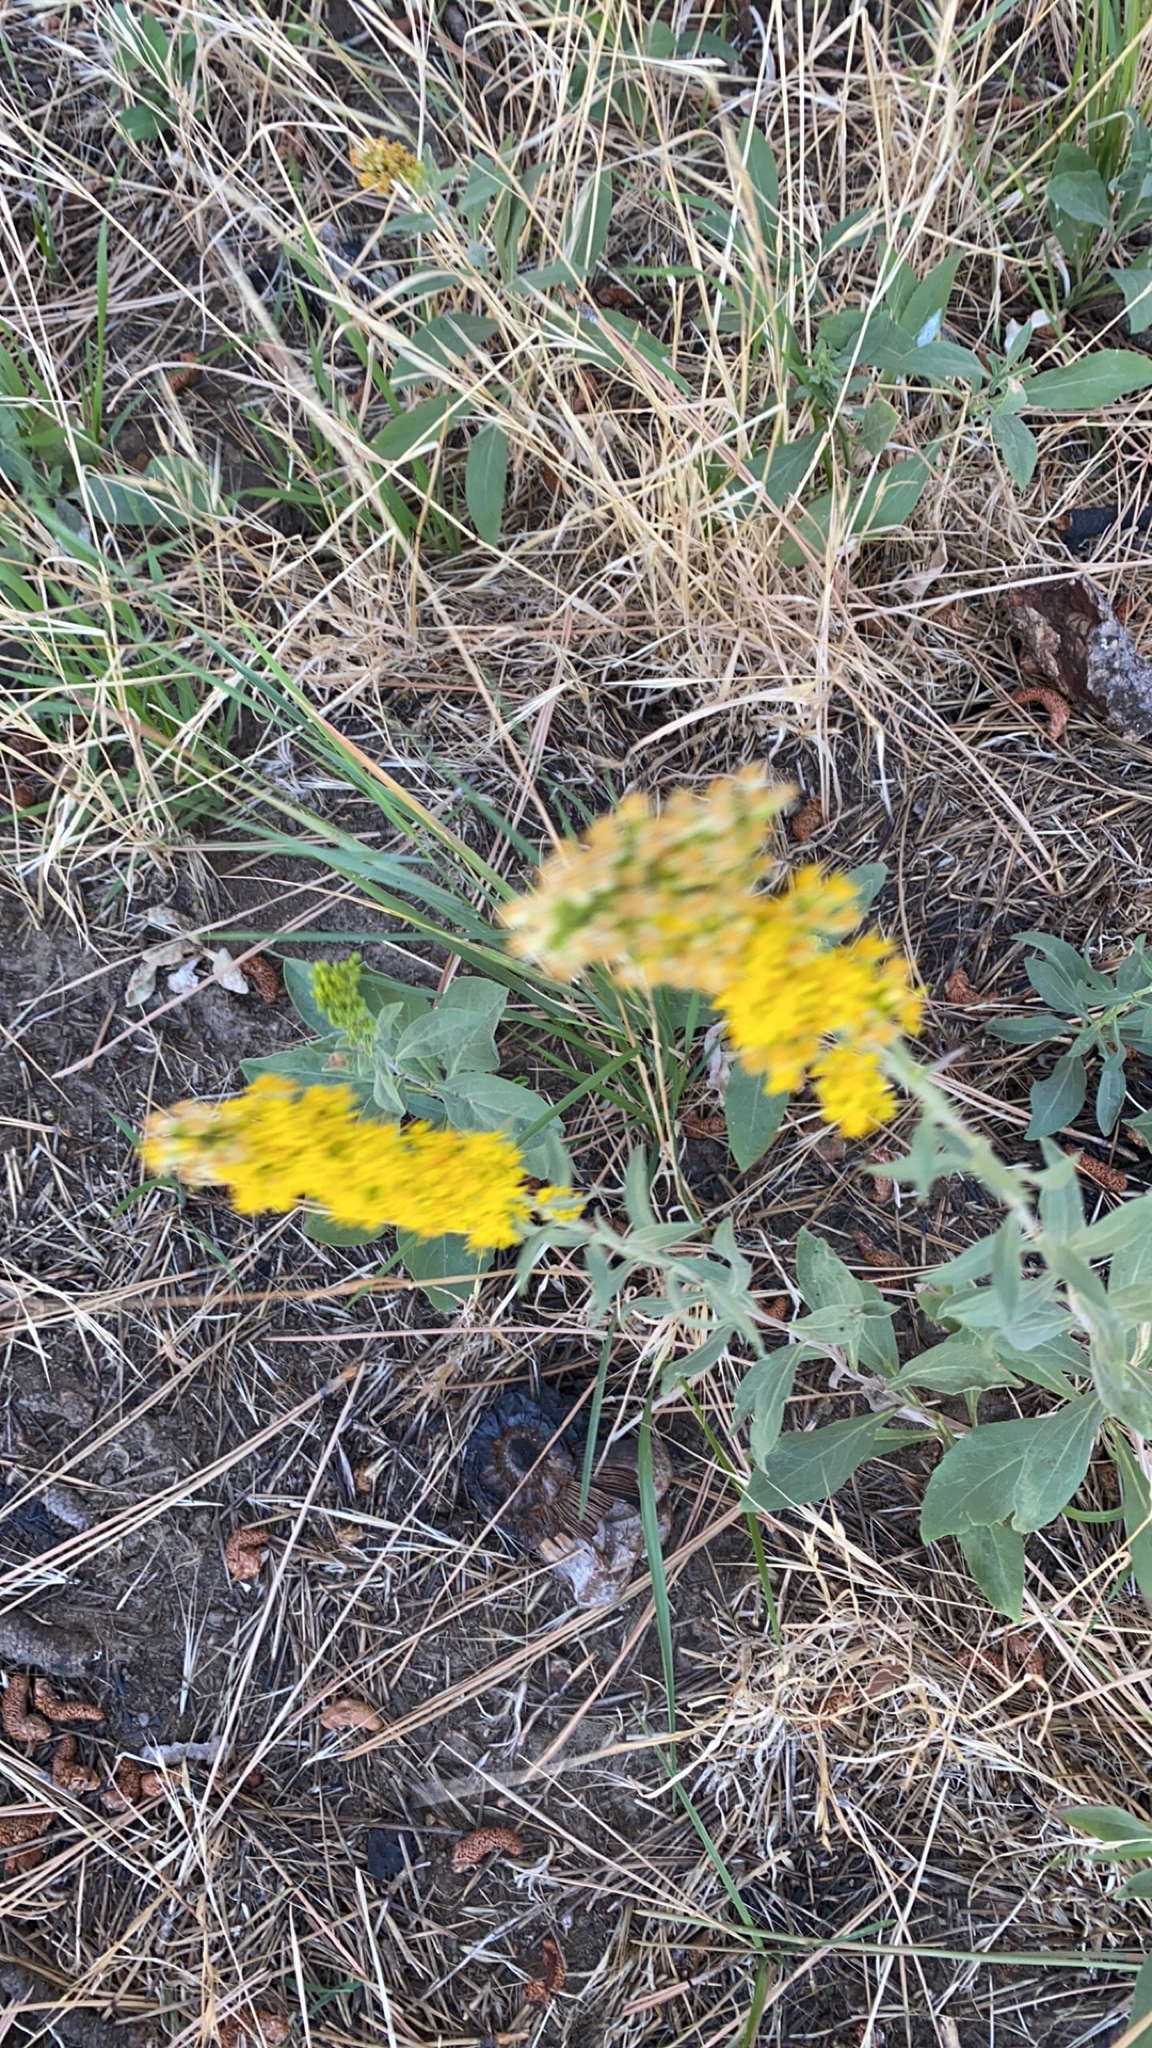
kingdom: Plantae
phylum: Tracheophyta
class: Magnoliopsida
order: Asterales
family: Asteraceae
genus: Solidago
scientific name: Solidago californica
